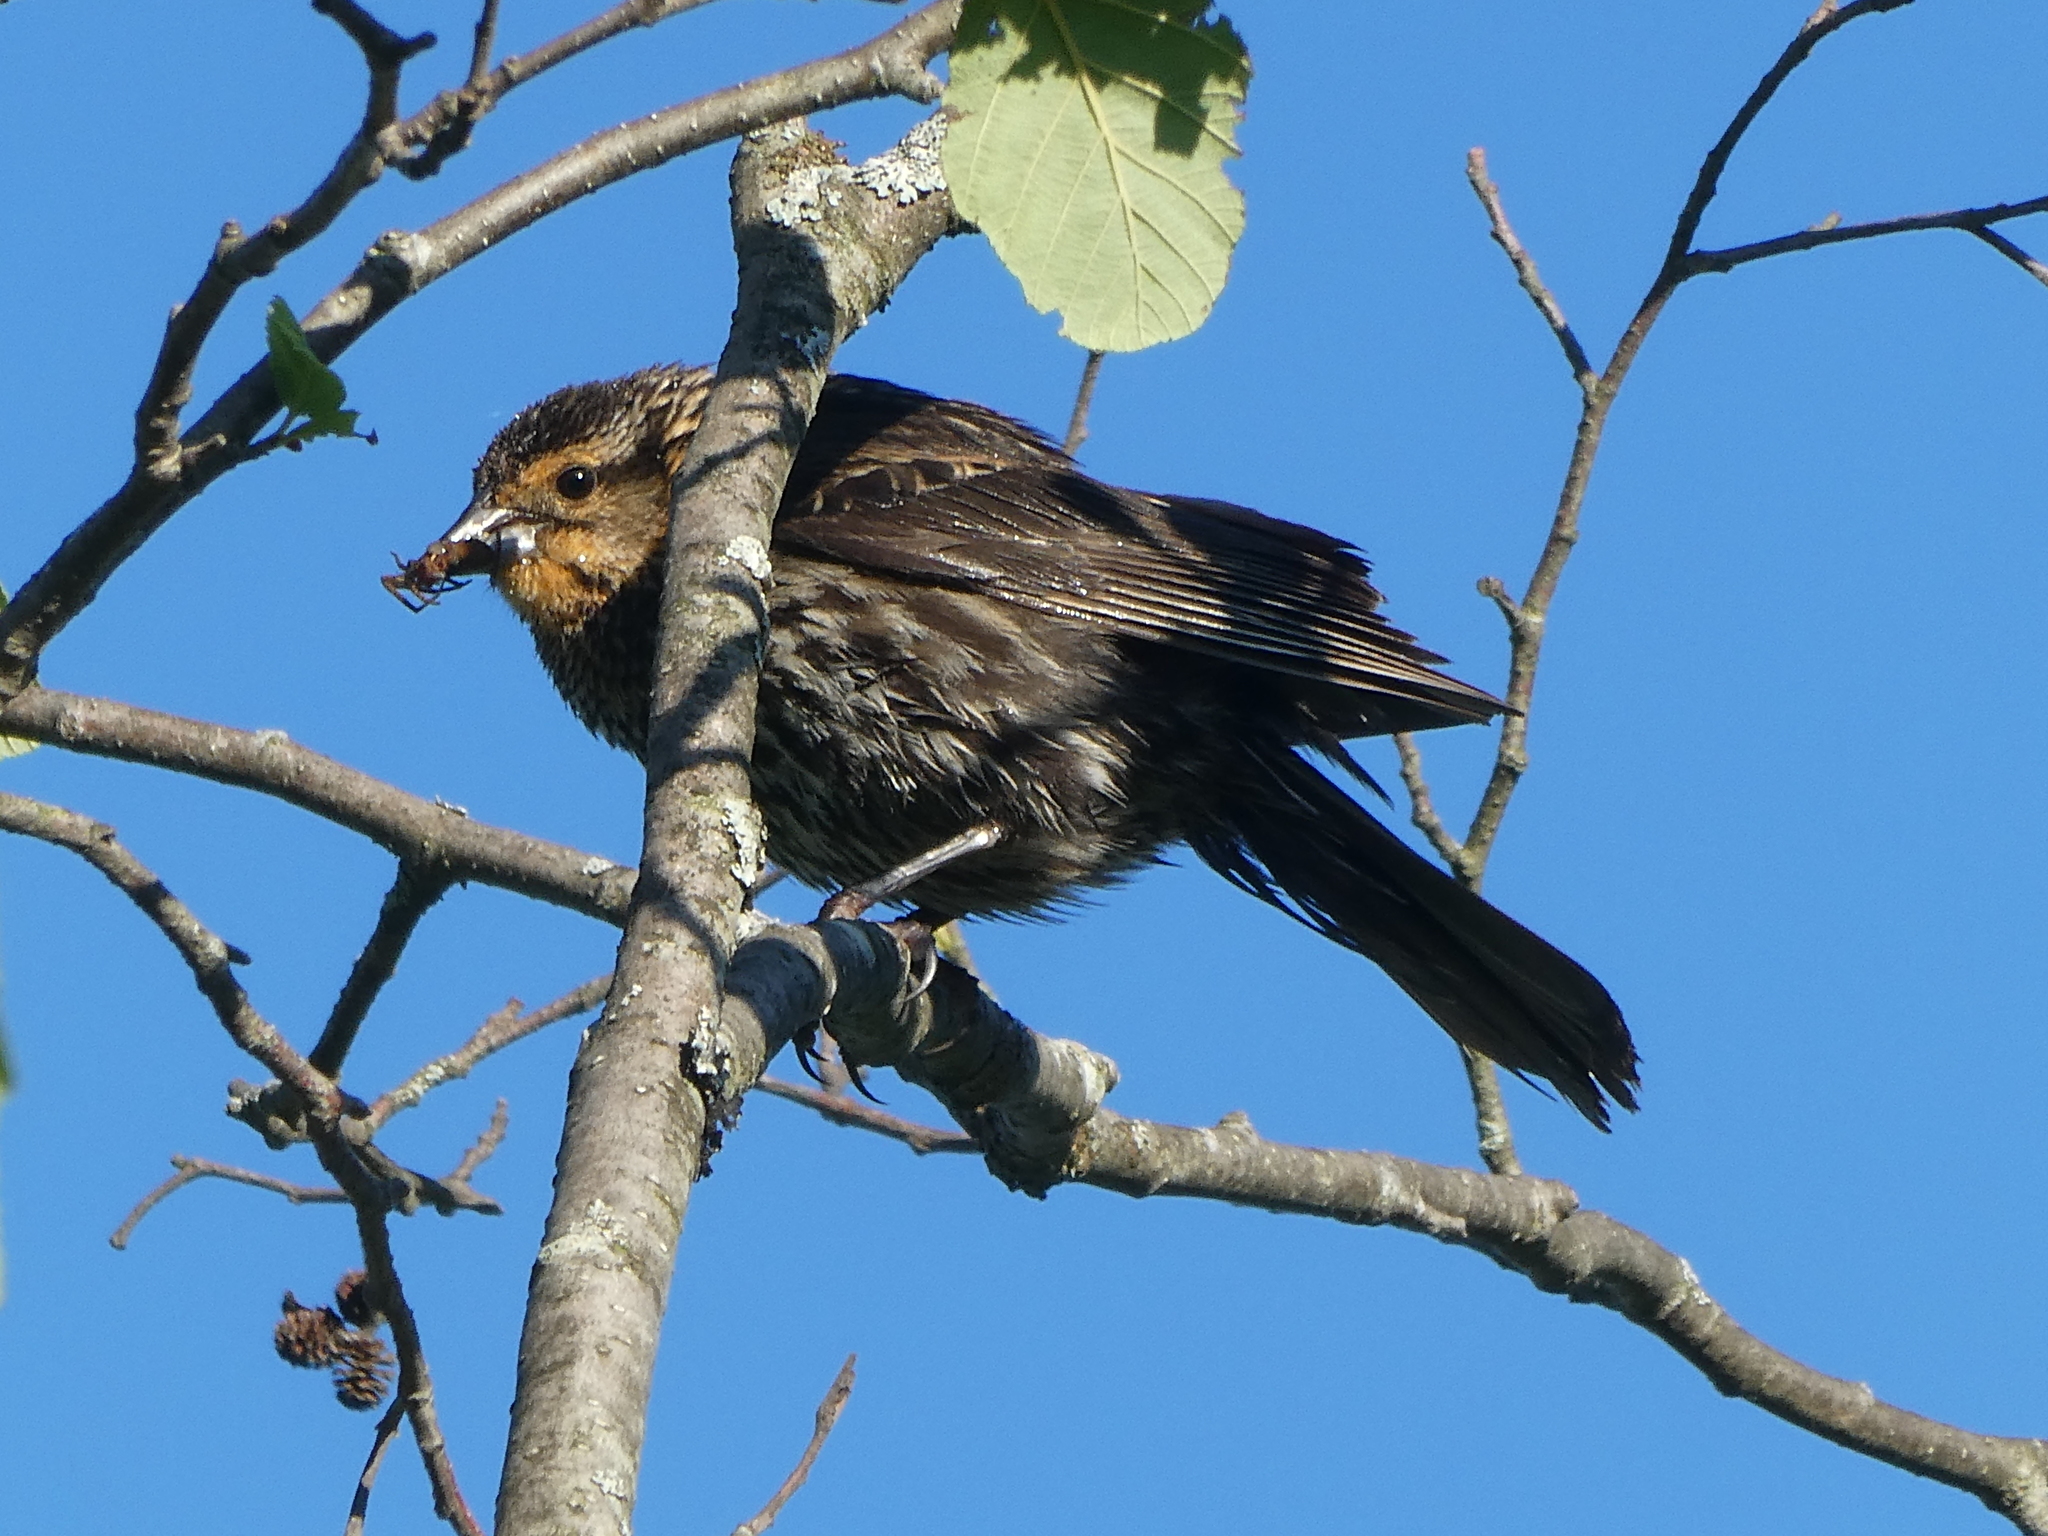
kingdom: Animalia
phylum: Chordata
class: Aves
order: Passeriformes
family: Icteridae
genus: Agelaius
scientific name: Agelaius phoeniceus
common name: Red-winged blackbird
